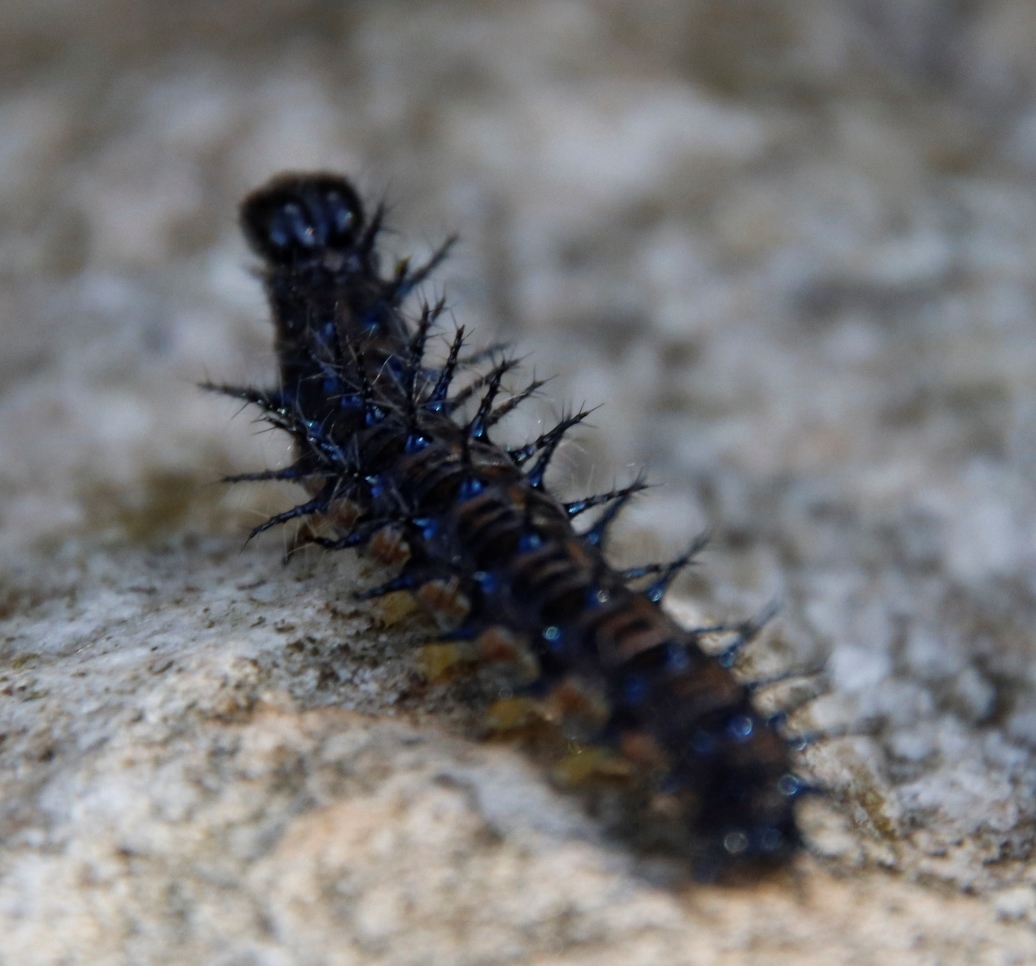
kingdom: Animalia
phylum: Arthropoda
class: Insecta
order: Lepidoptera
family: Nymphalidae
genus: Acraea
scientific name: Acraea horta
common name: Garden acraea
